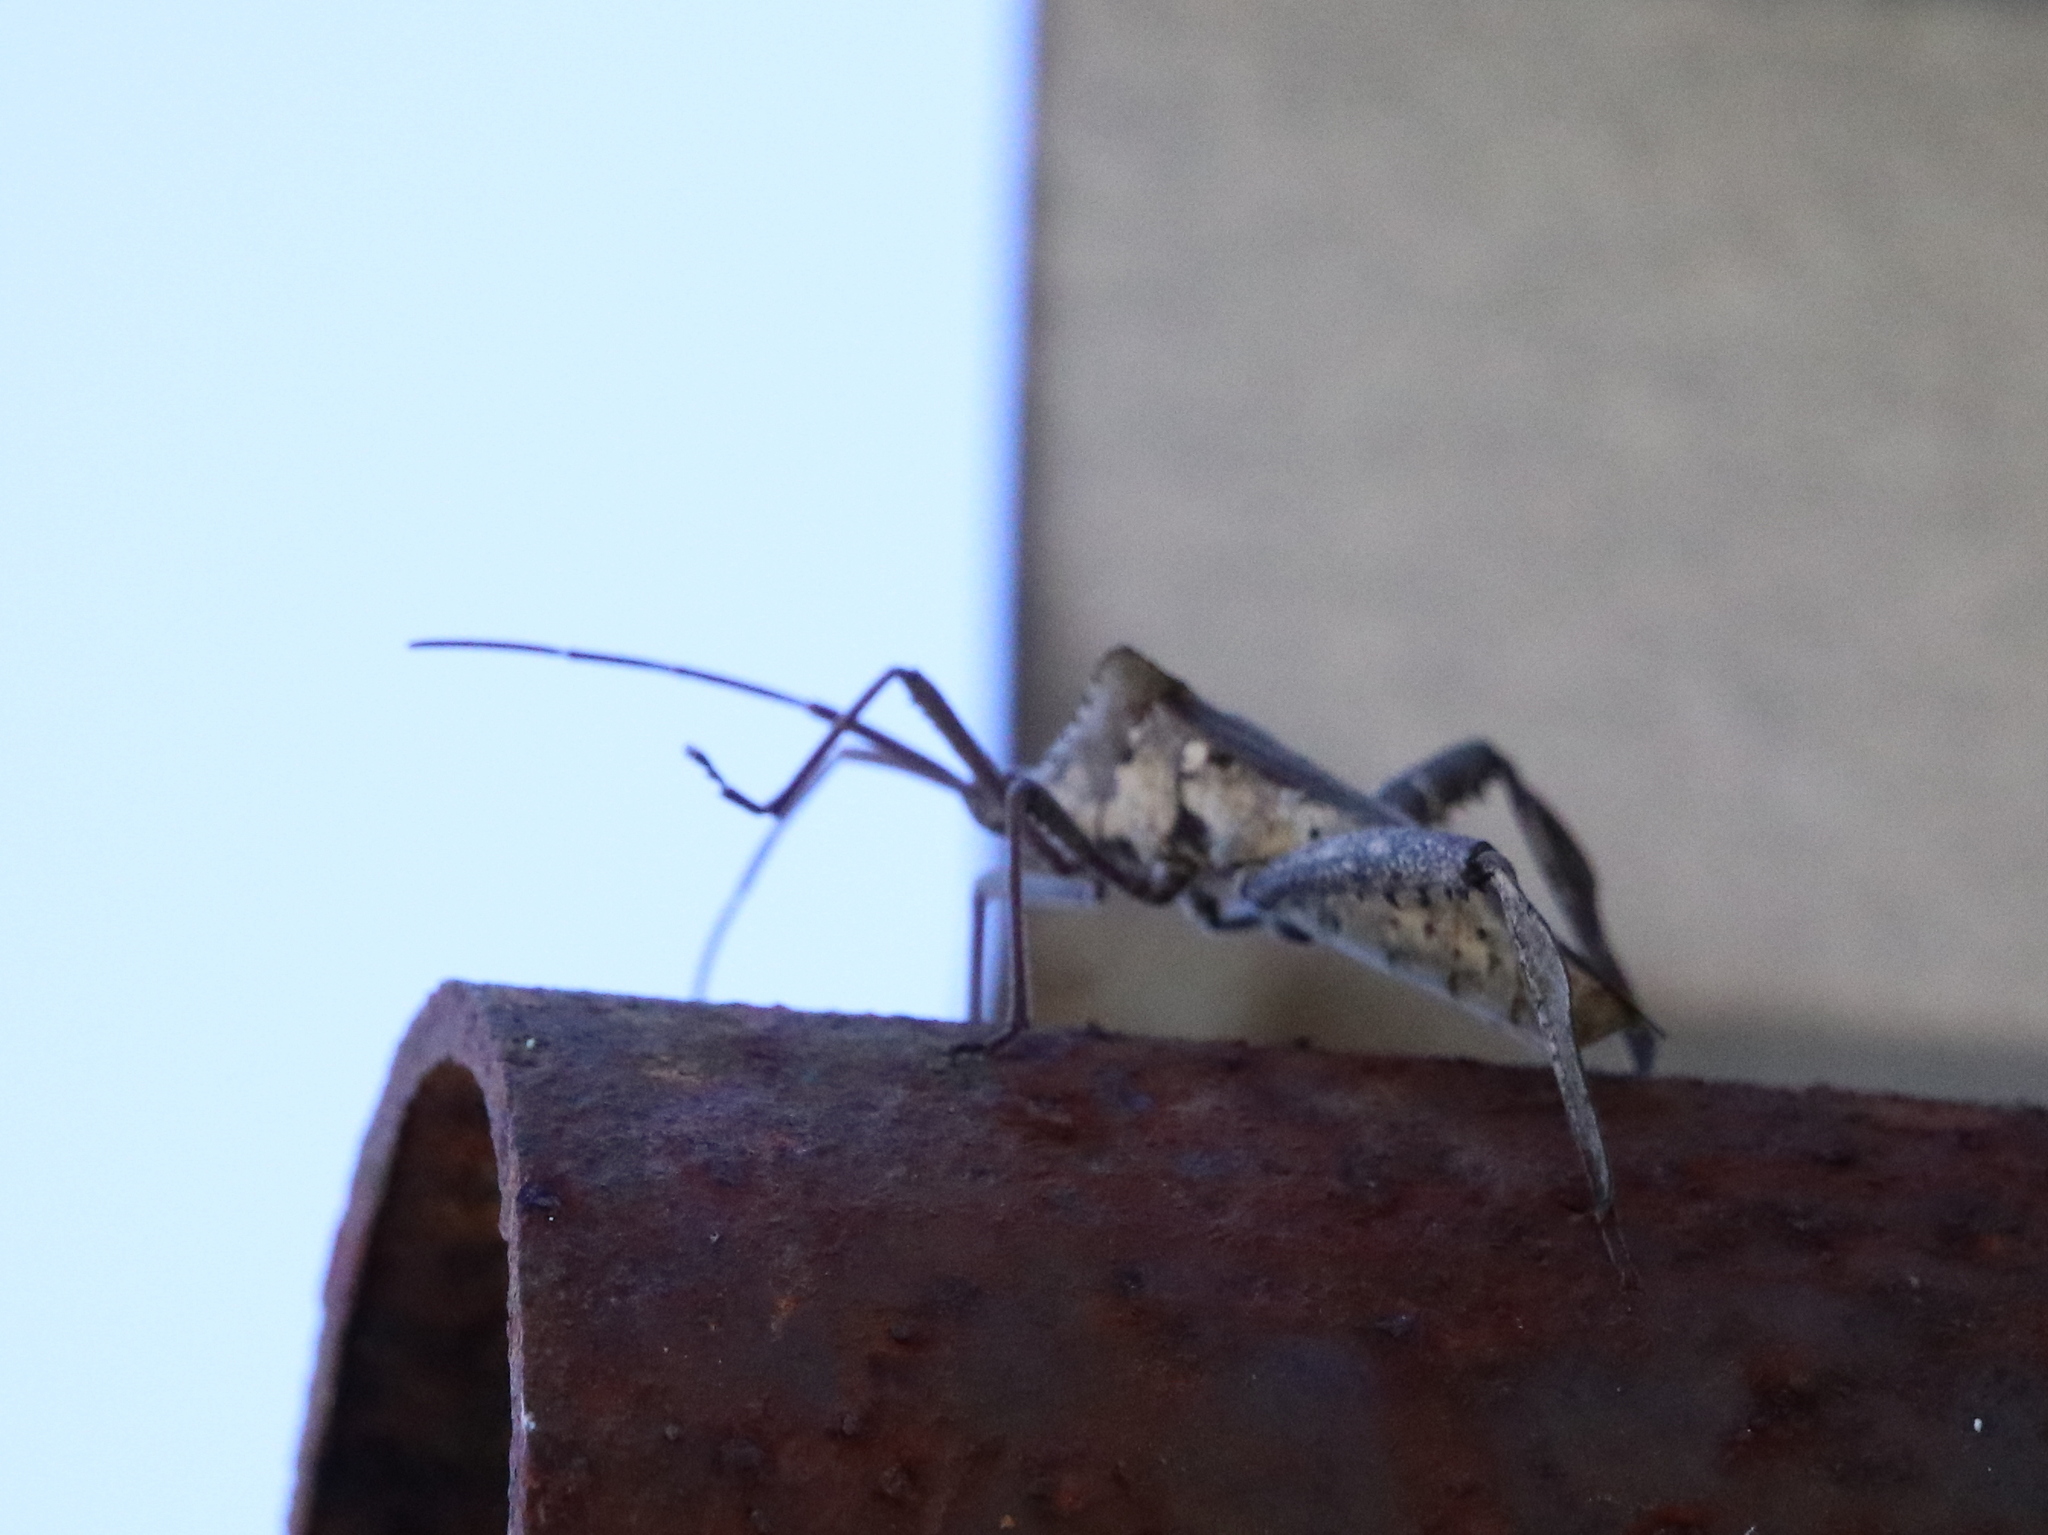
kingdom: Animalia
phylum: Arthropoda
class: Insecta
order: Hemiptera
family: Coreidae
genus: Acanthocephala
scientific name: Acanthocephala declivis
